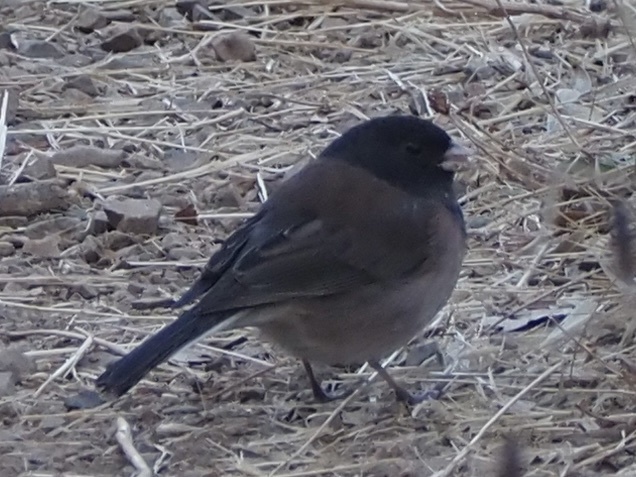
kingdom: Animalia
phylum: Chordata
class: Aves
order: Passeriformes
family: Passerellidae
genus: Junco
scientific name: Junco hyemalis
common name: Dark-eyed junco
